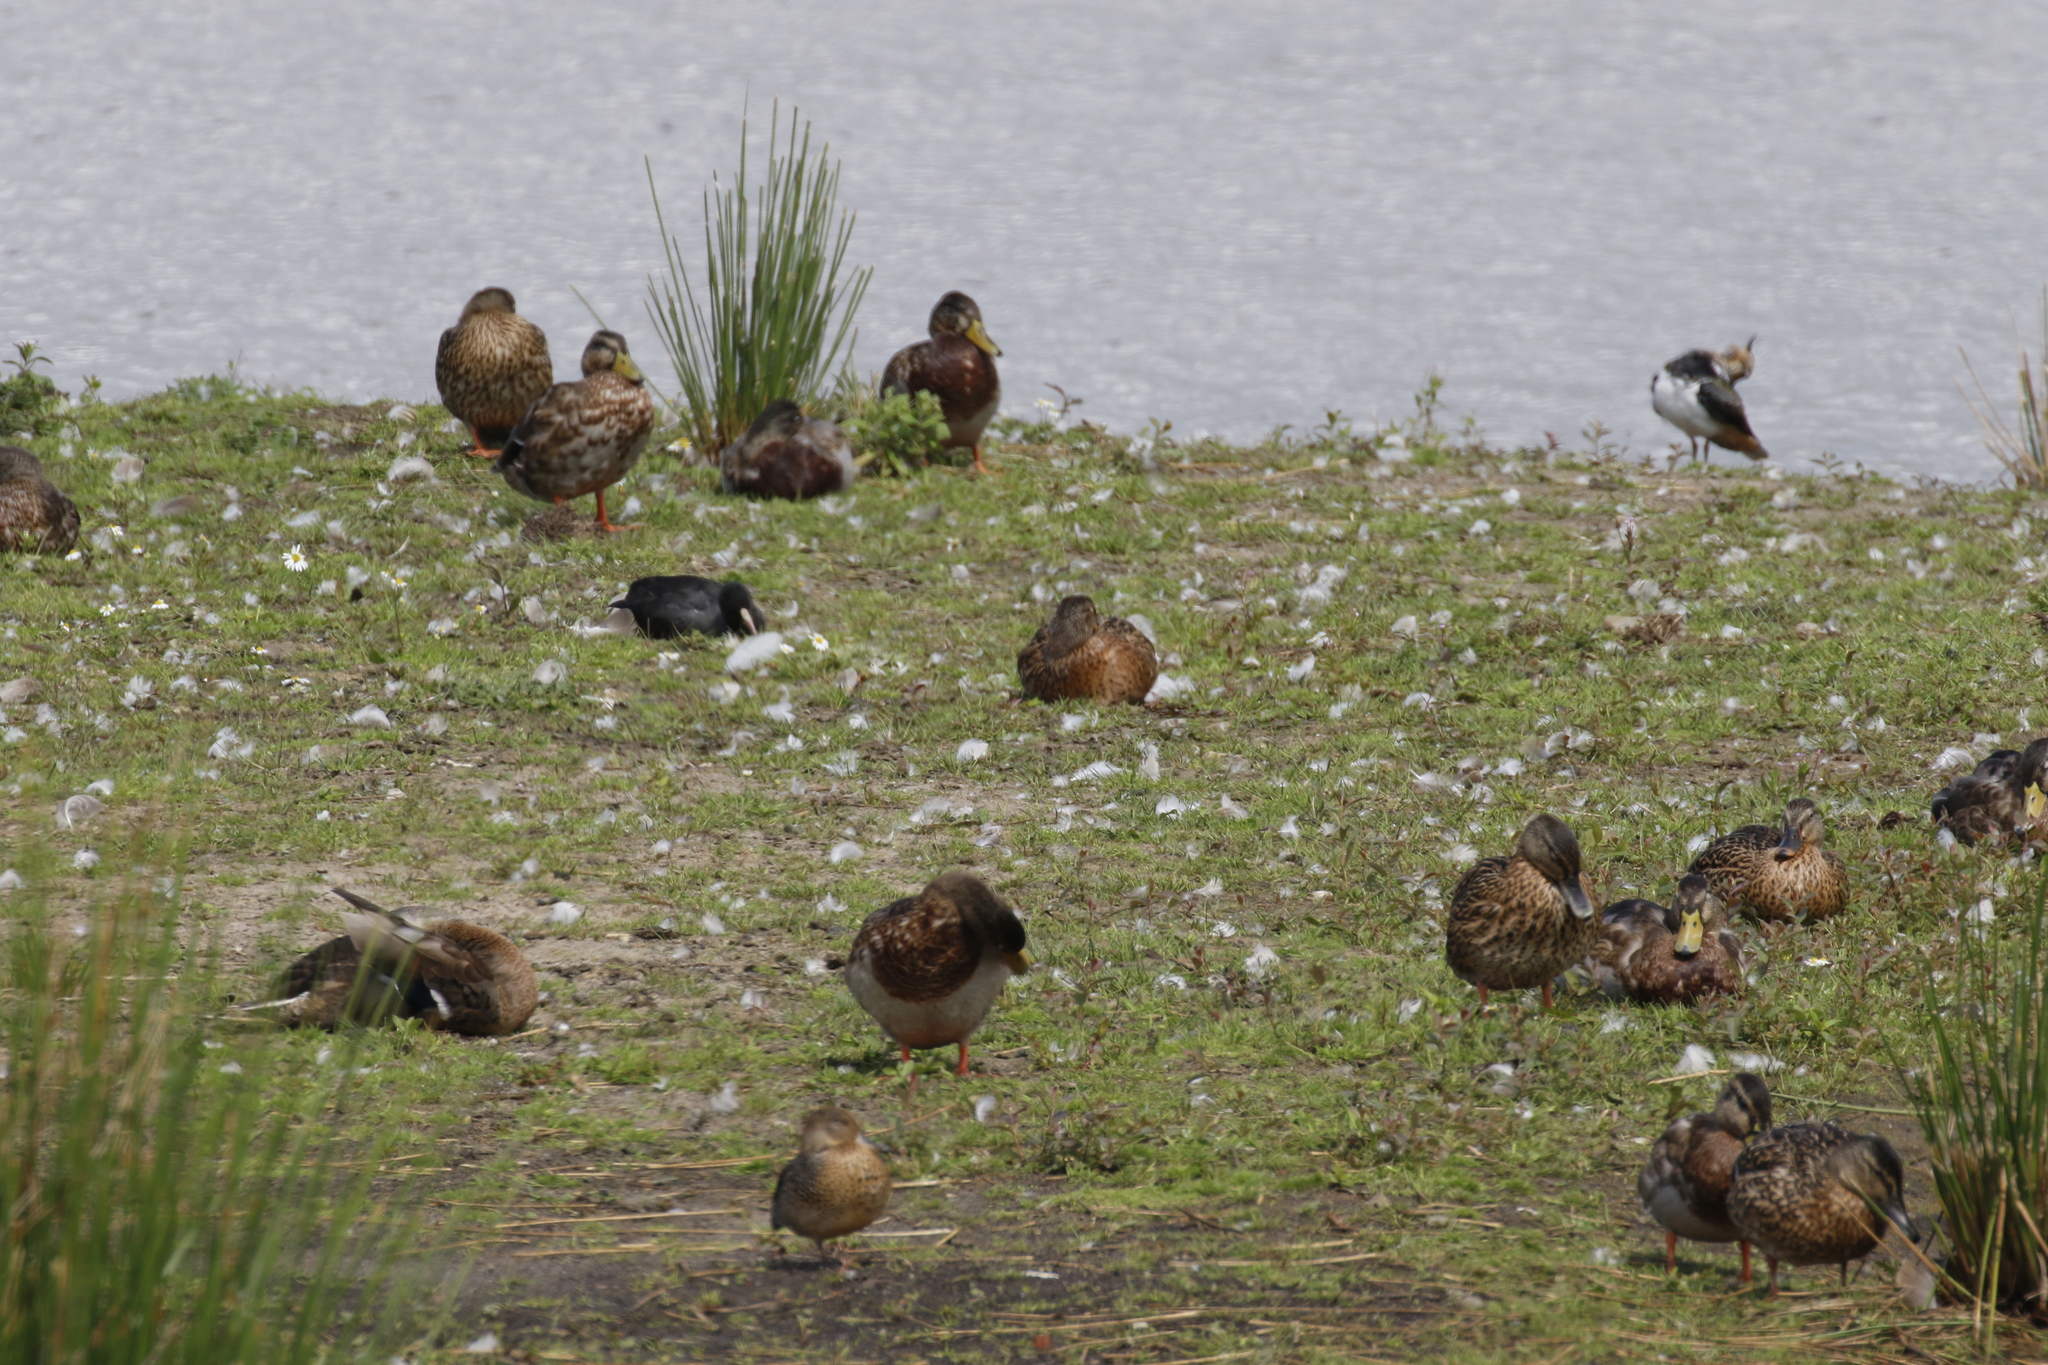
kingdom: Animalia
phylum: Chordata
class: Aves
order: Anseriformes
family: Anatidae
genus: Anas
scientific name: Anas platyrhynchos
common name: Mallard
